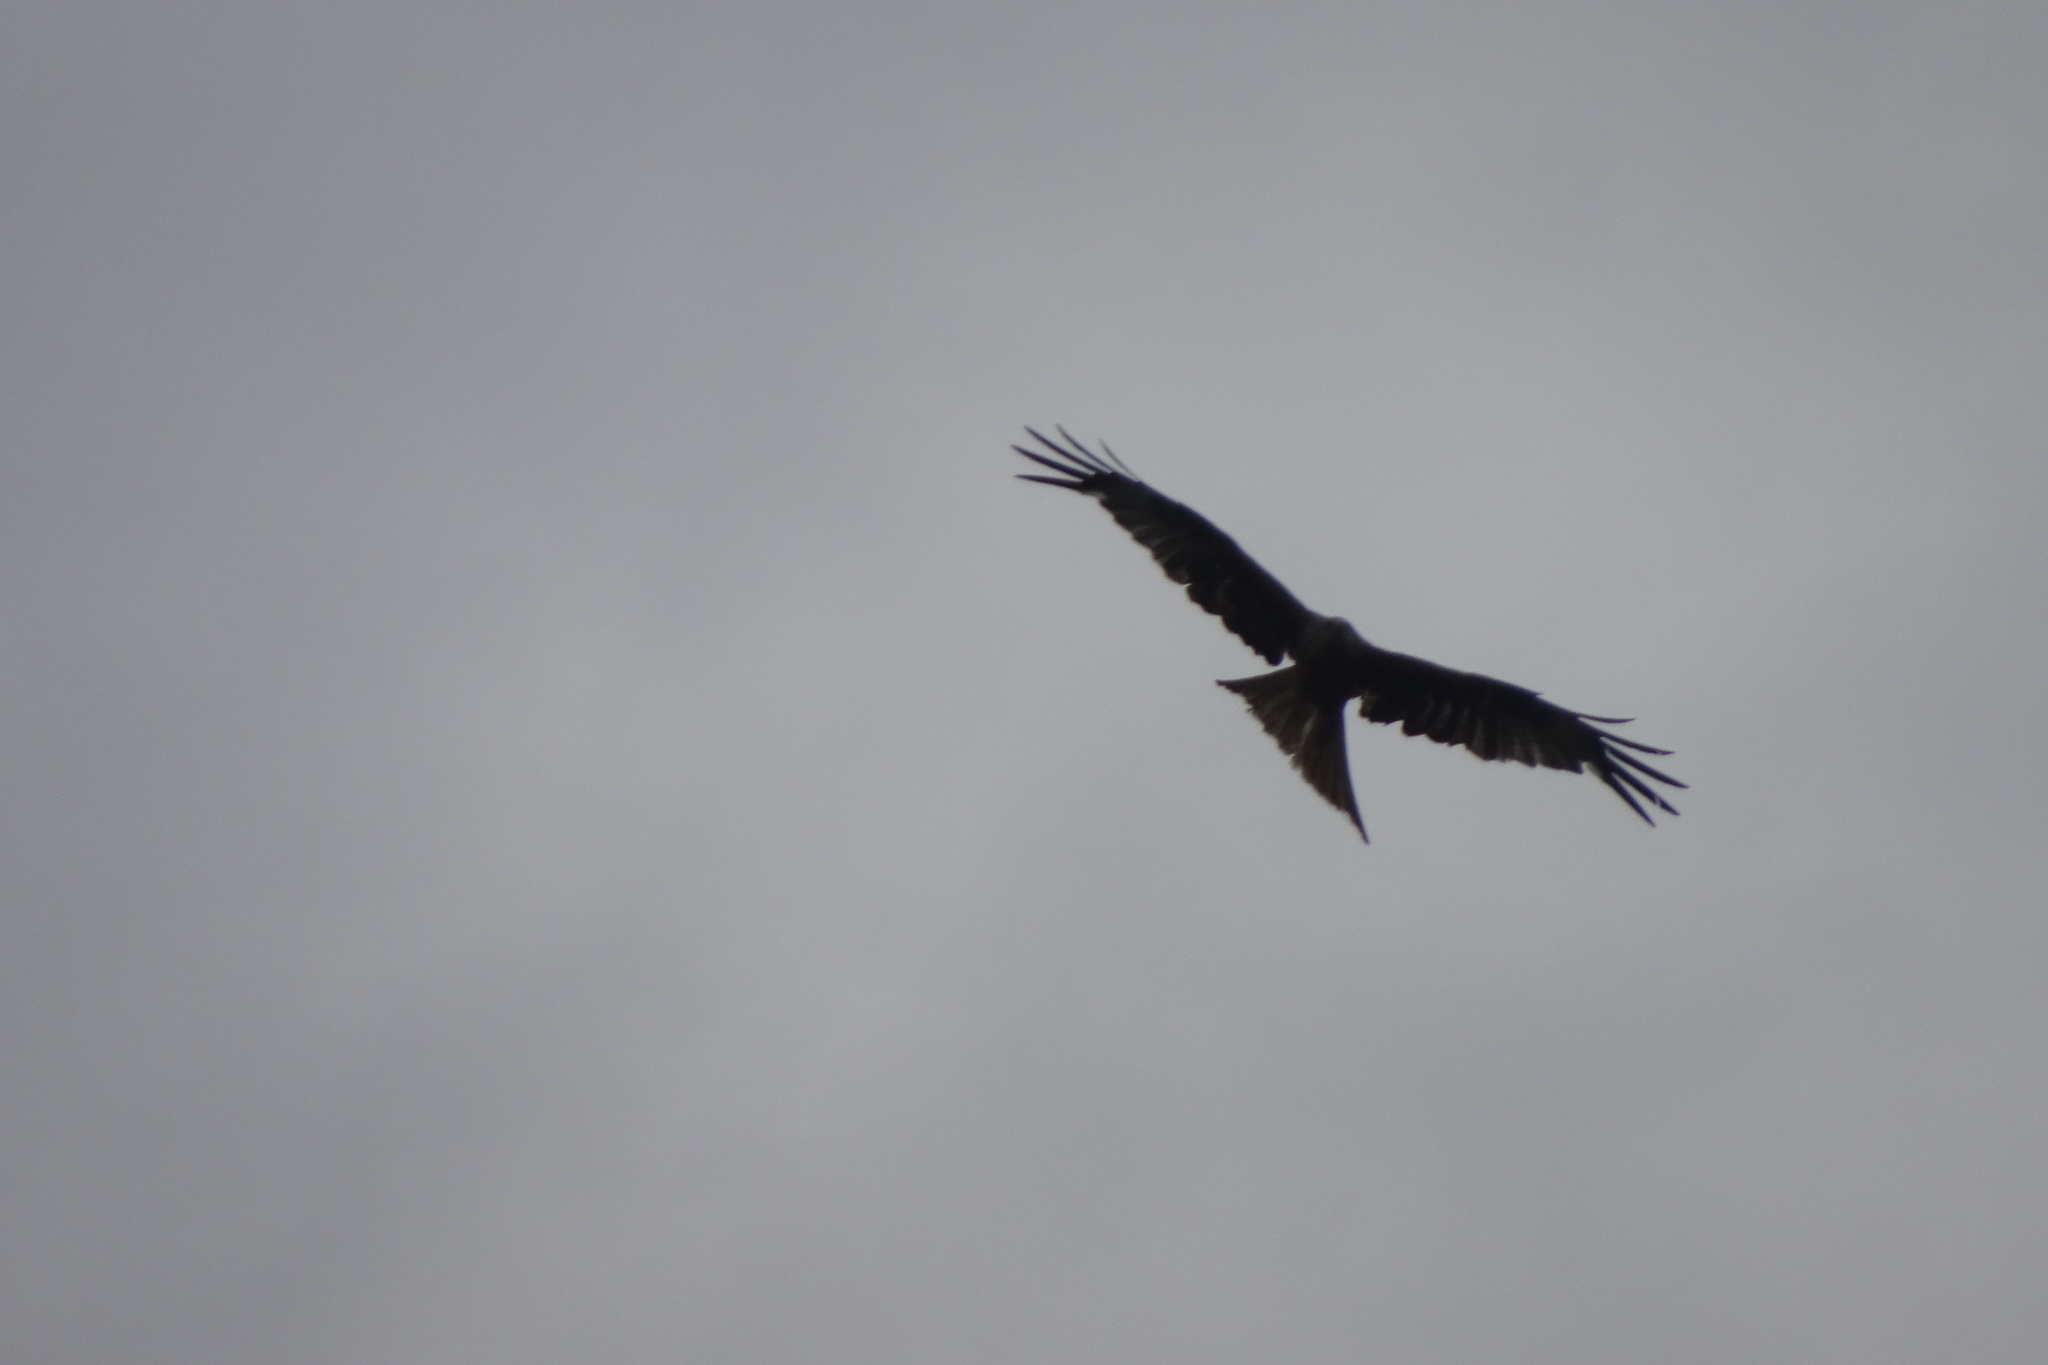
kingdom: Animalia
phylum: Chordata
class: Aves
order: Accipitriformes
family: Accipitridae
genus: Milvus
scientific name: Milvus milvus
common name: Red kite
